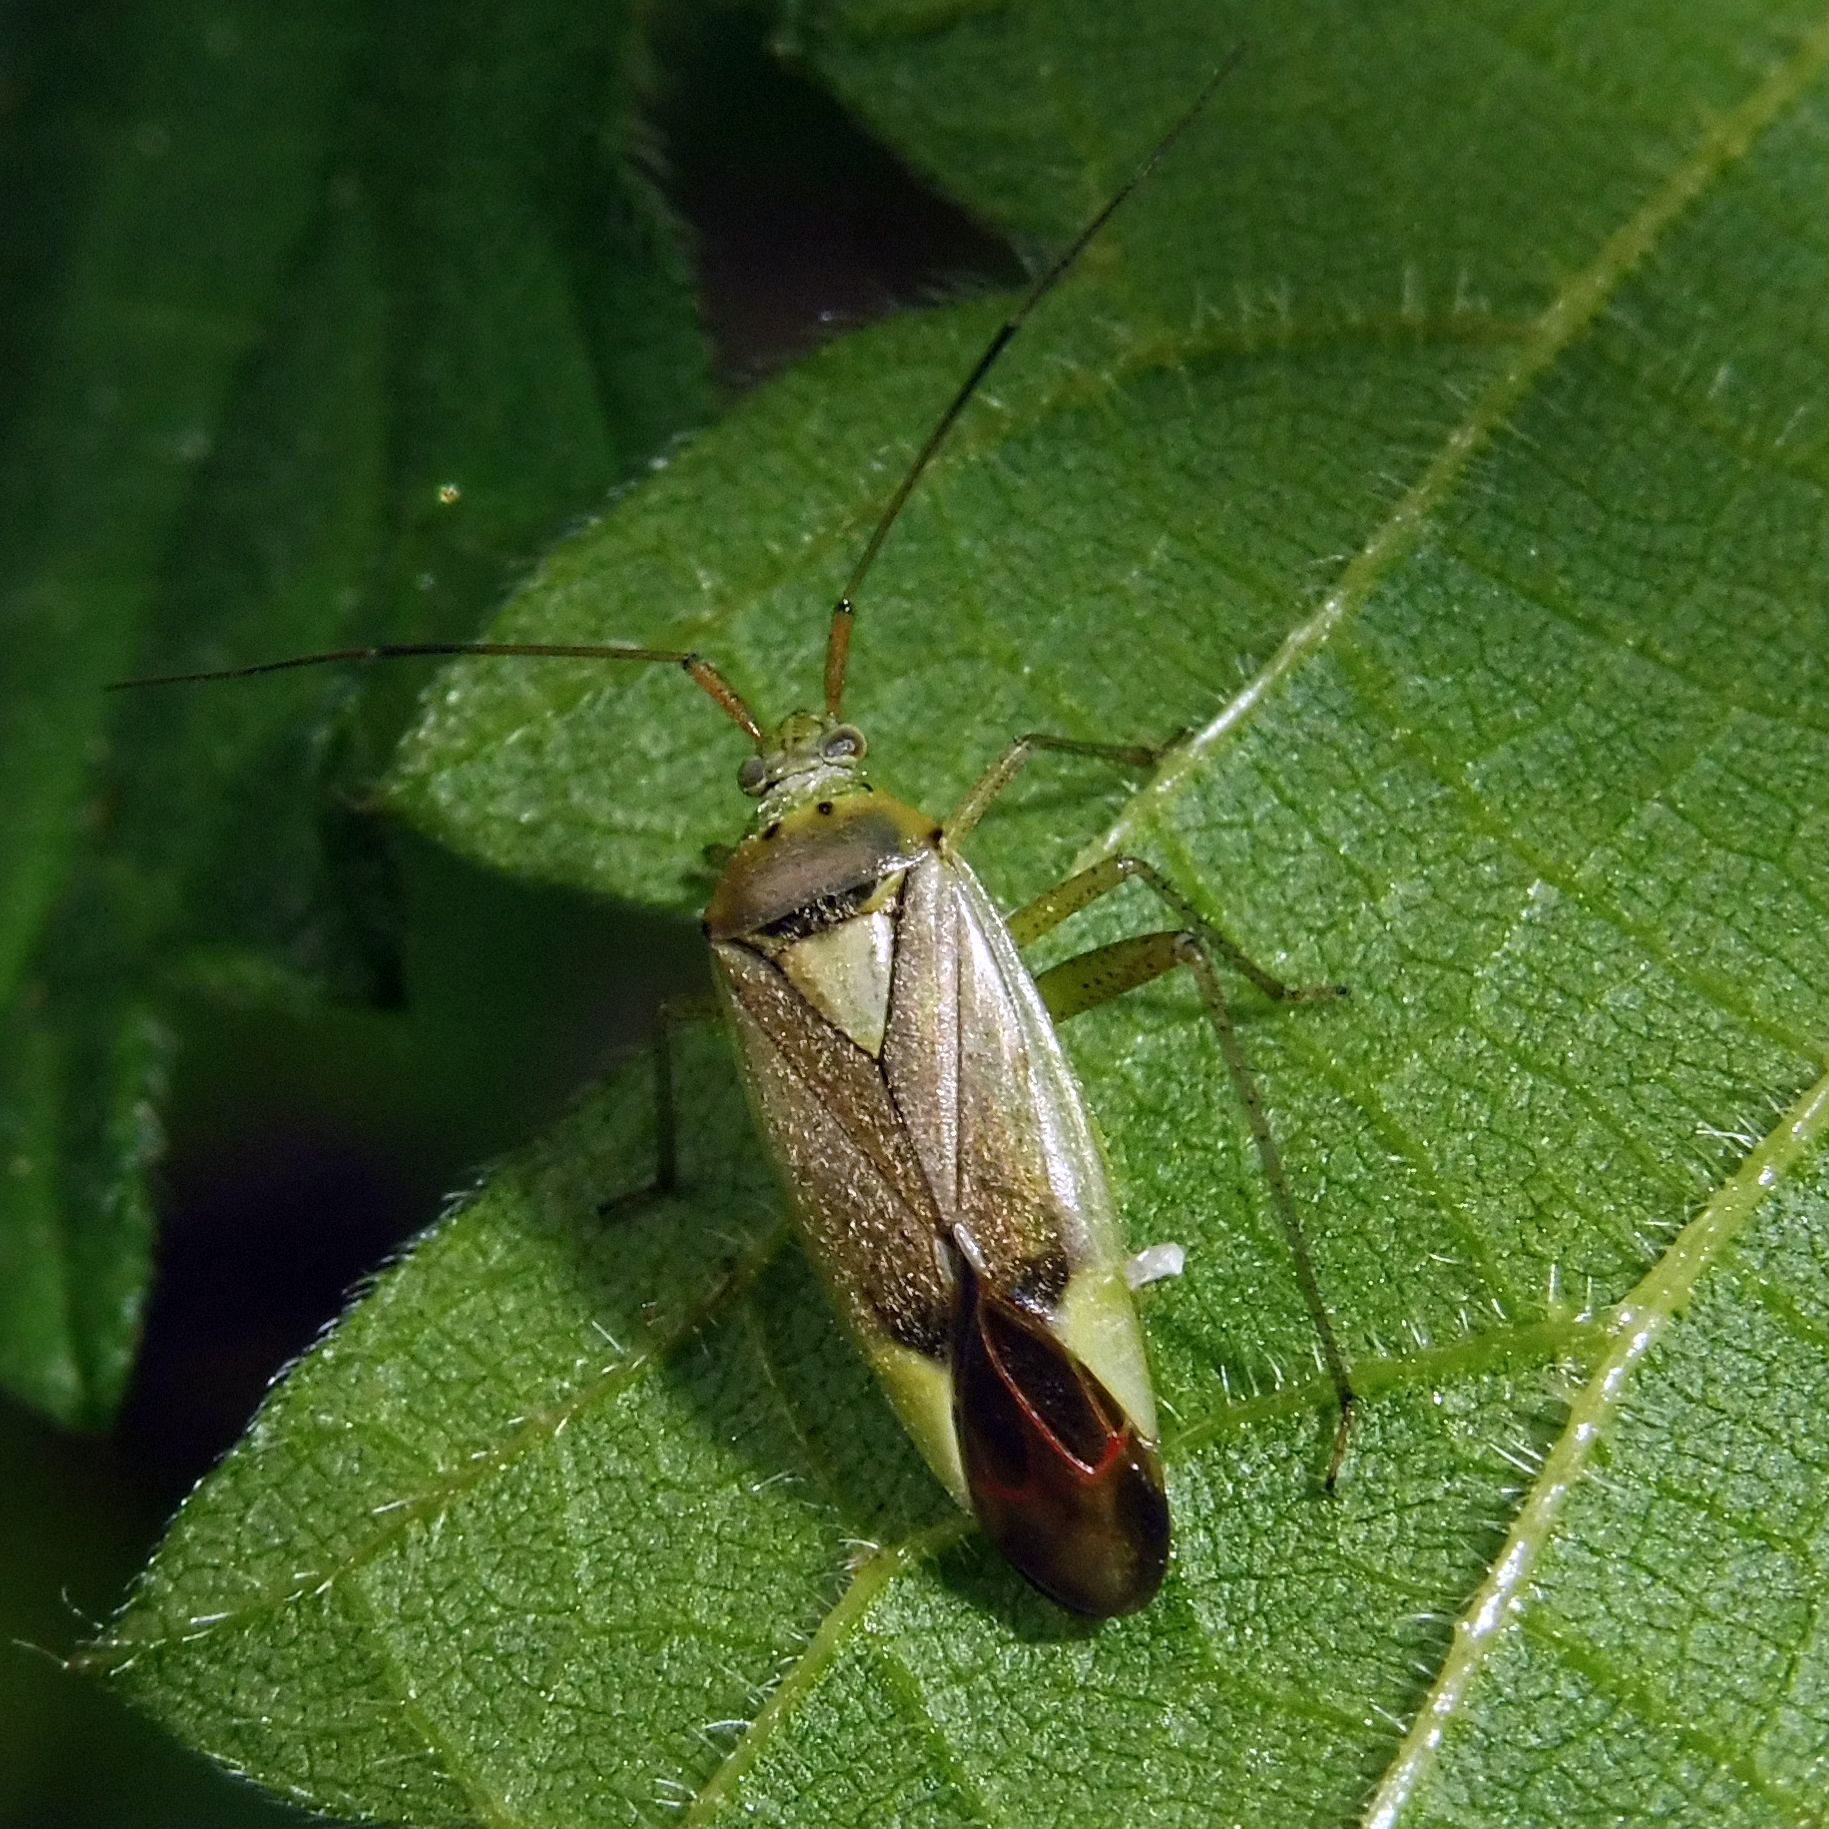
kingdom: Animalia
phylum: Arthropoda
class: Insecta
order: Hemiptera
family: Miridae
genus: Closterotomus
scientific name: Closterotomus trivialis
